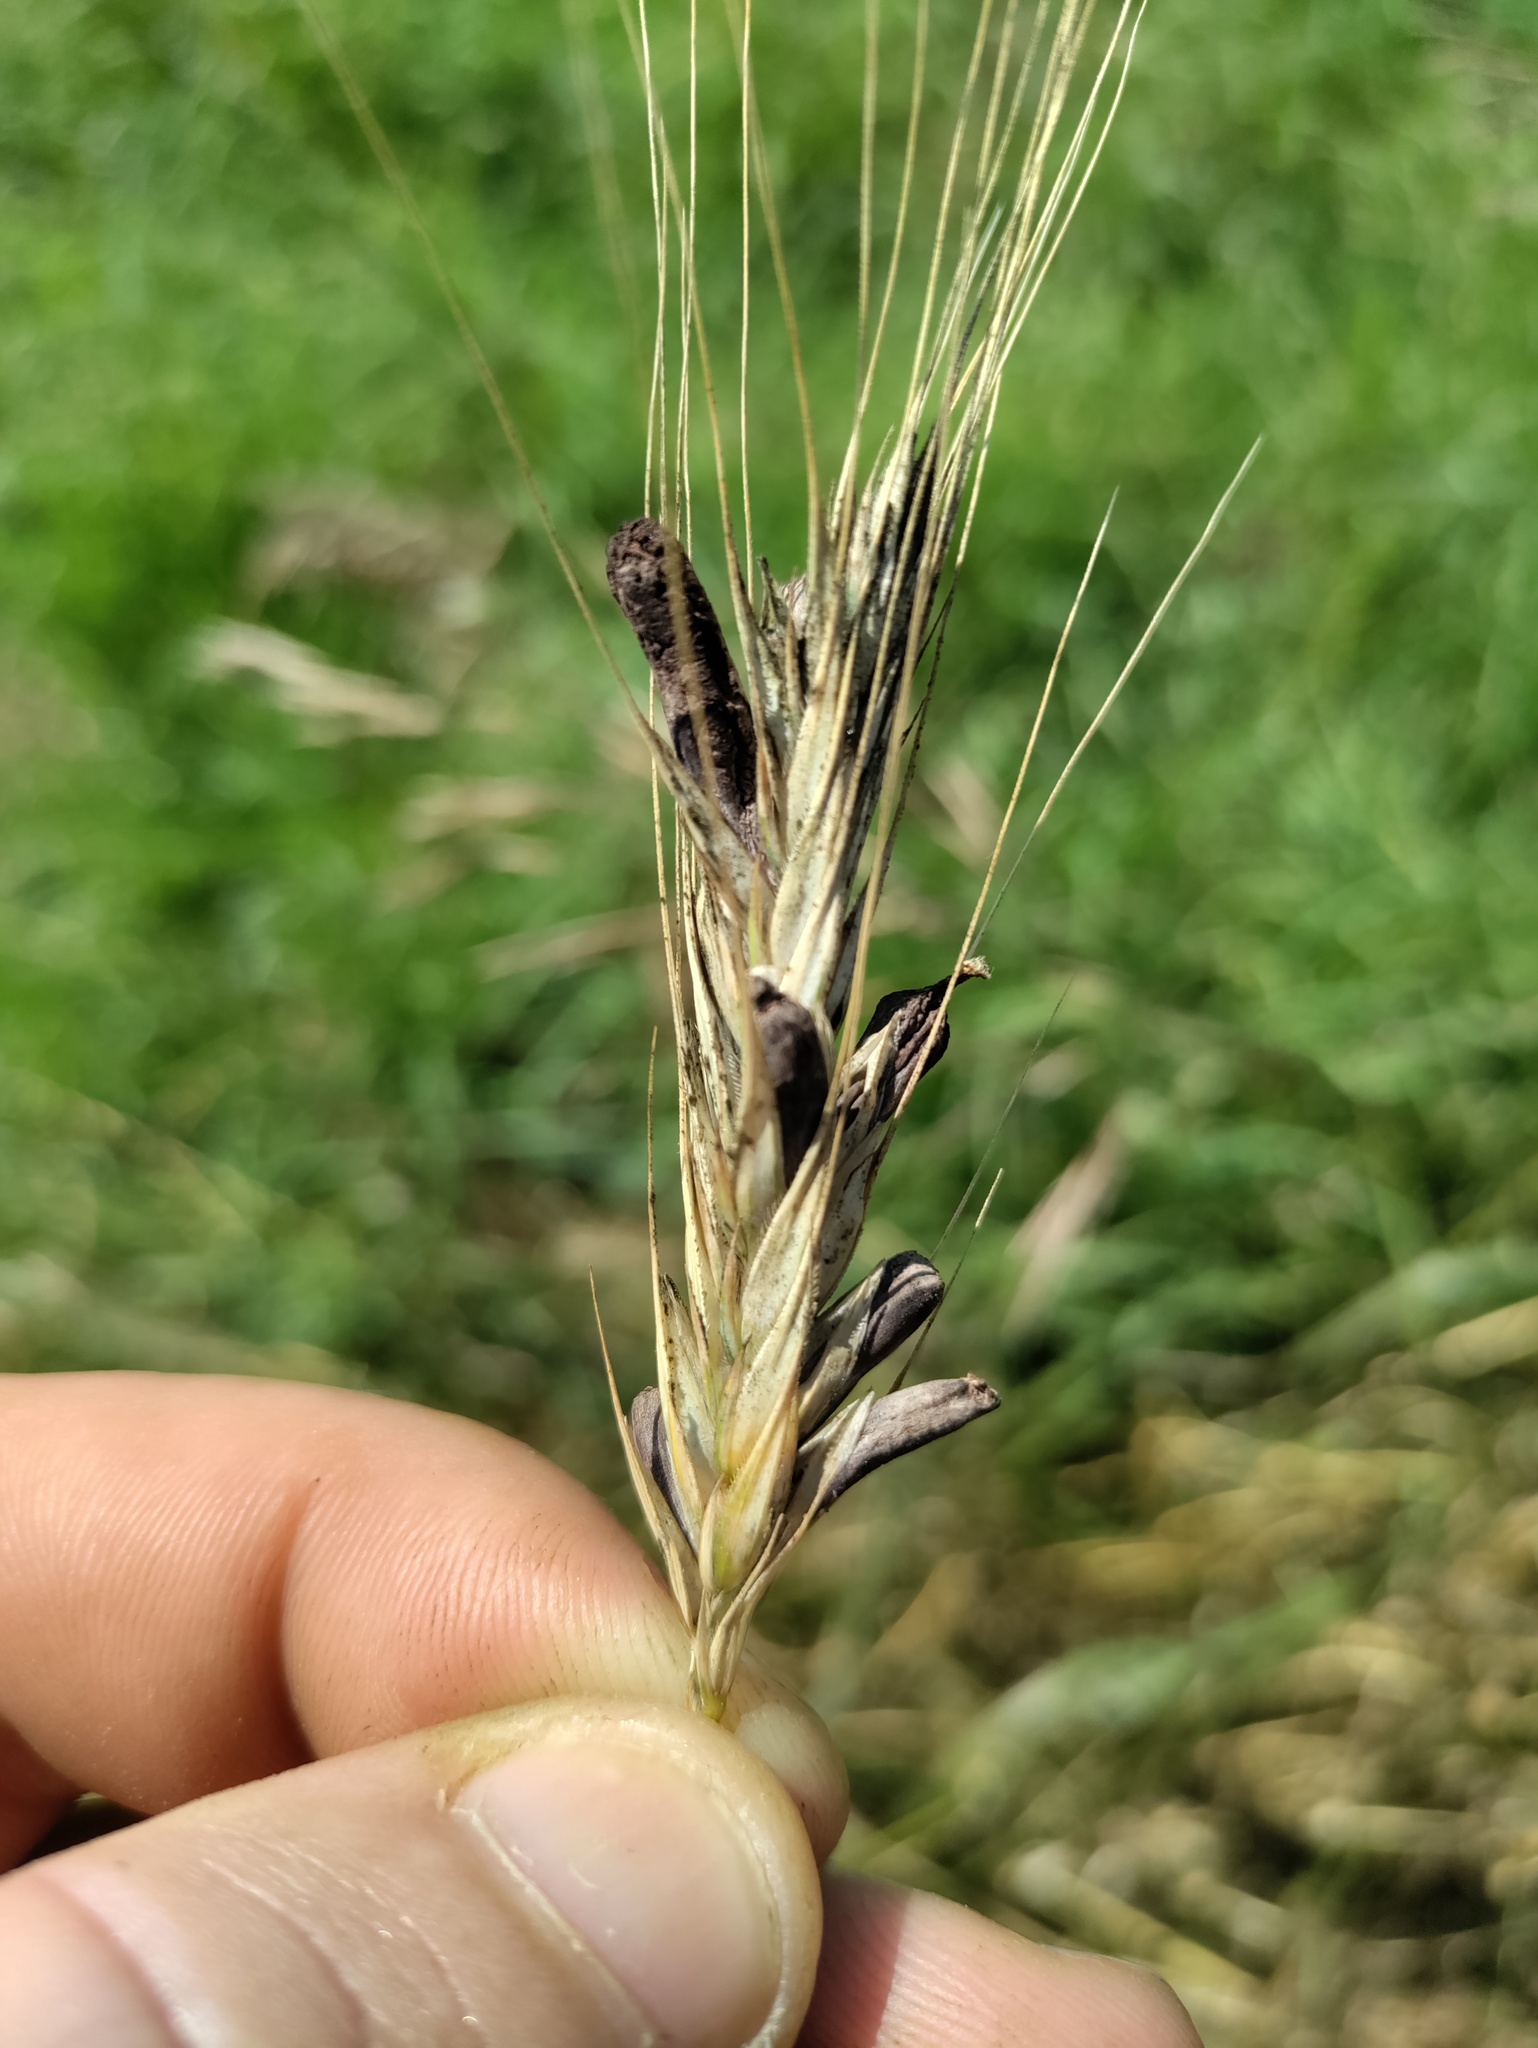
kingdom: Fungi
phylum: Ascomycota
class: Sordariomycetes
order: Hypocreales
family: Clavicipitaceae
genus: Claviceps
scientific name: Claviceps purpurea
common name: Rye ergot
